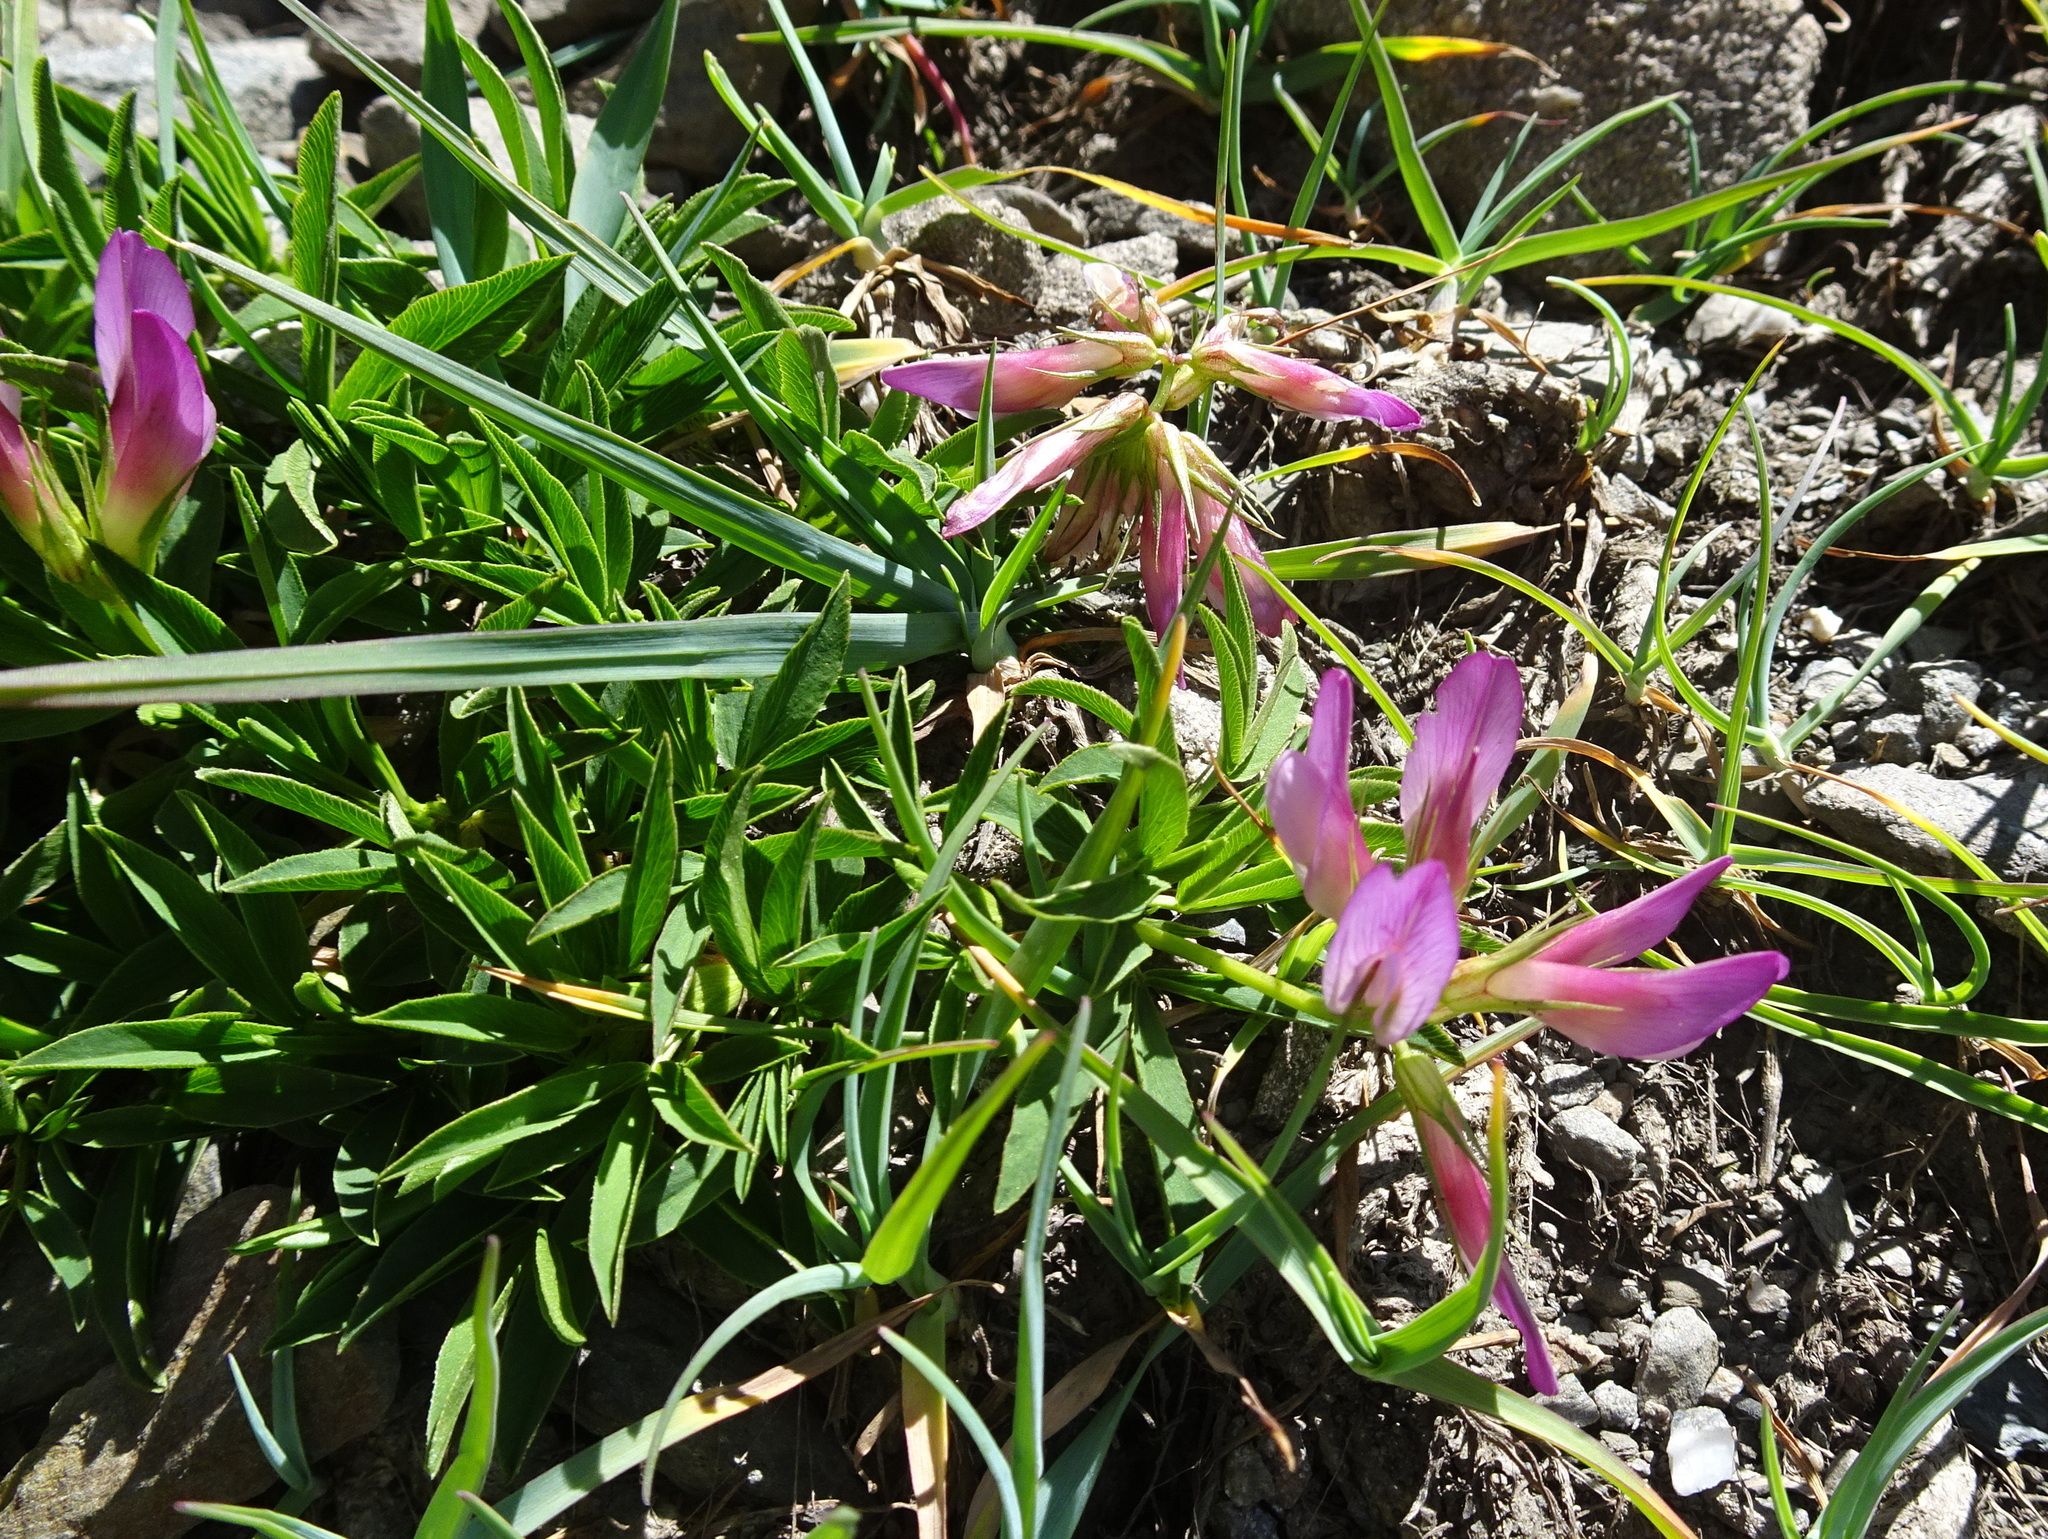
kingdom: Plantae
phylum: Tracheophyta
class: Magnoliopsida
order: Fabales
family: Fabaceae
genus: Trifolium
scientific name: Trifolium alpinum
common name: Alpine clover
